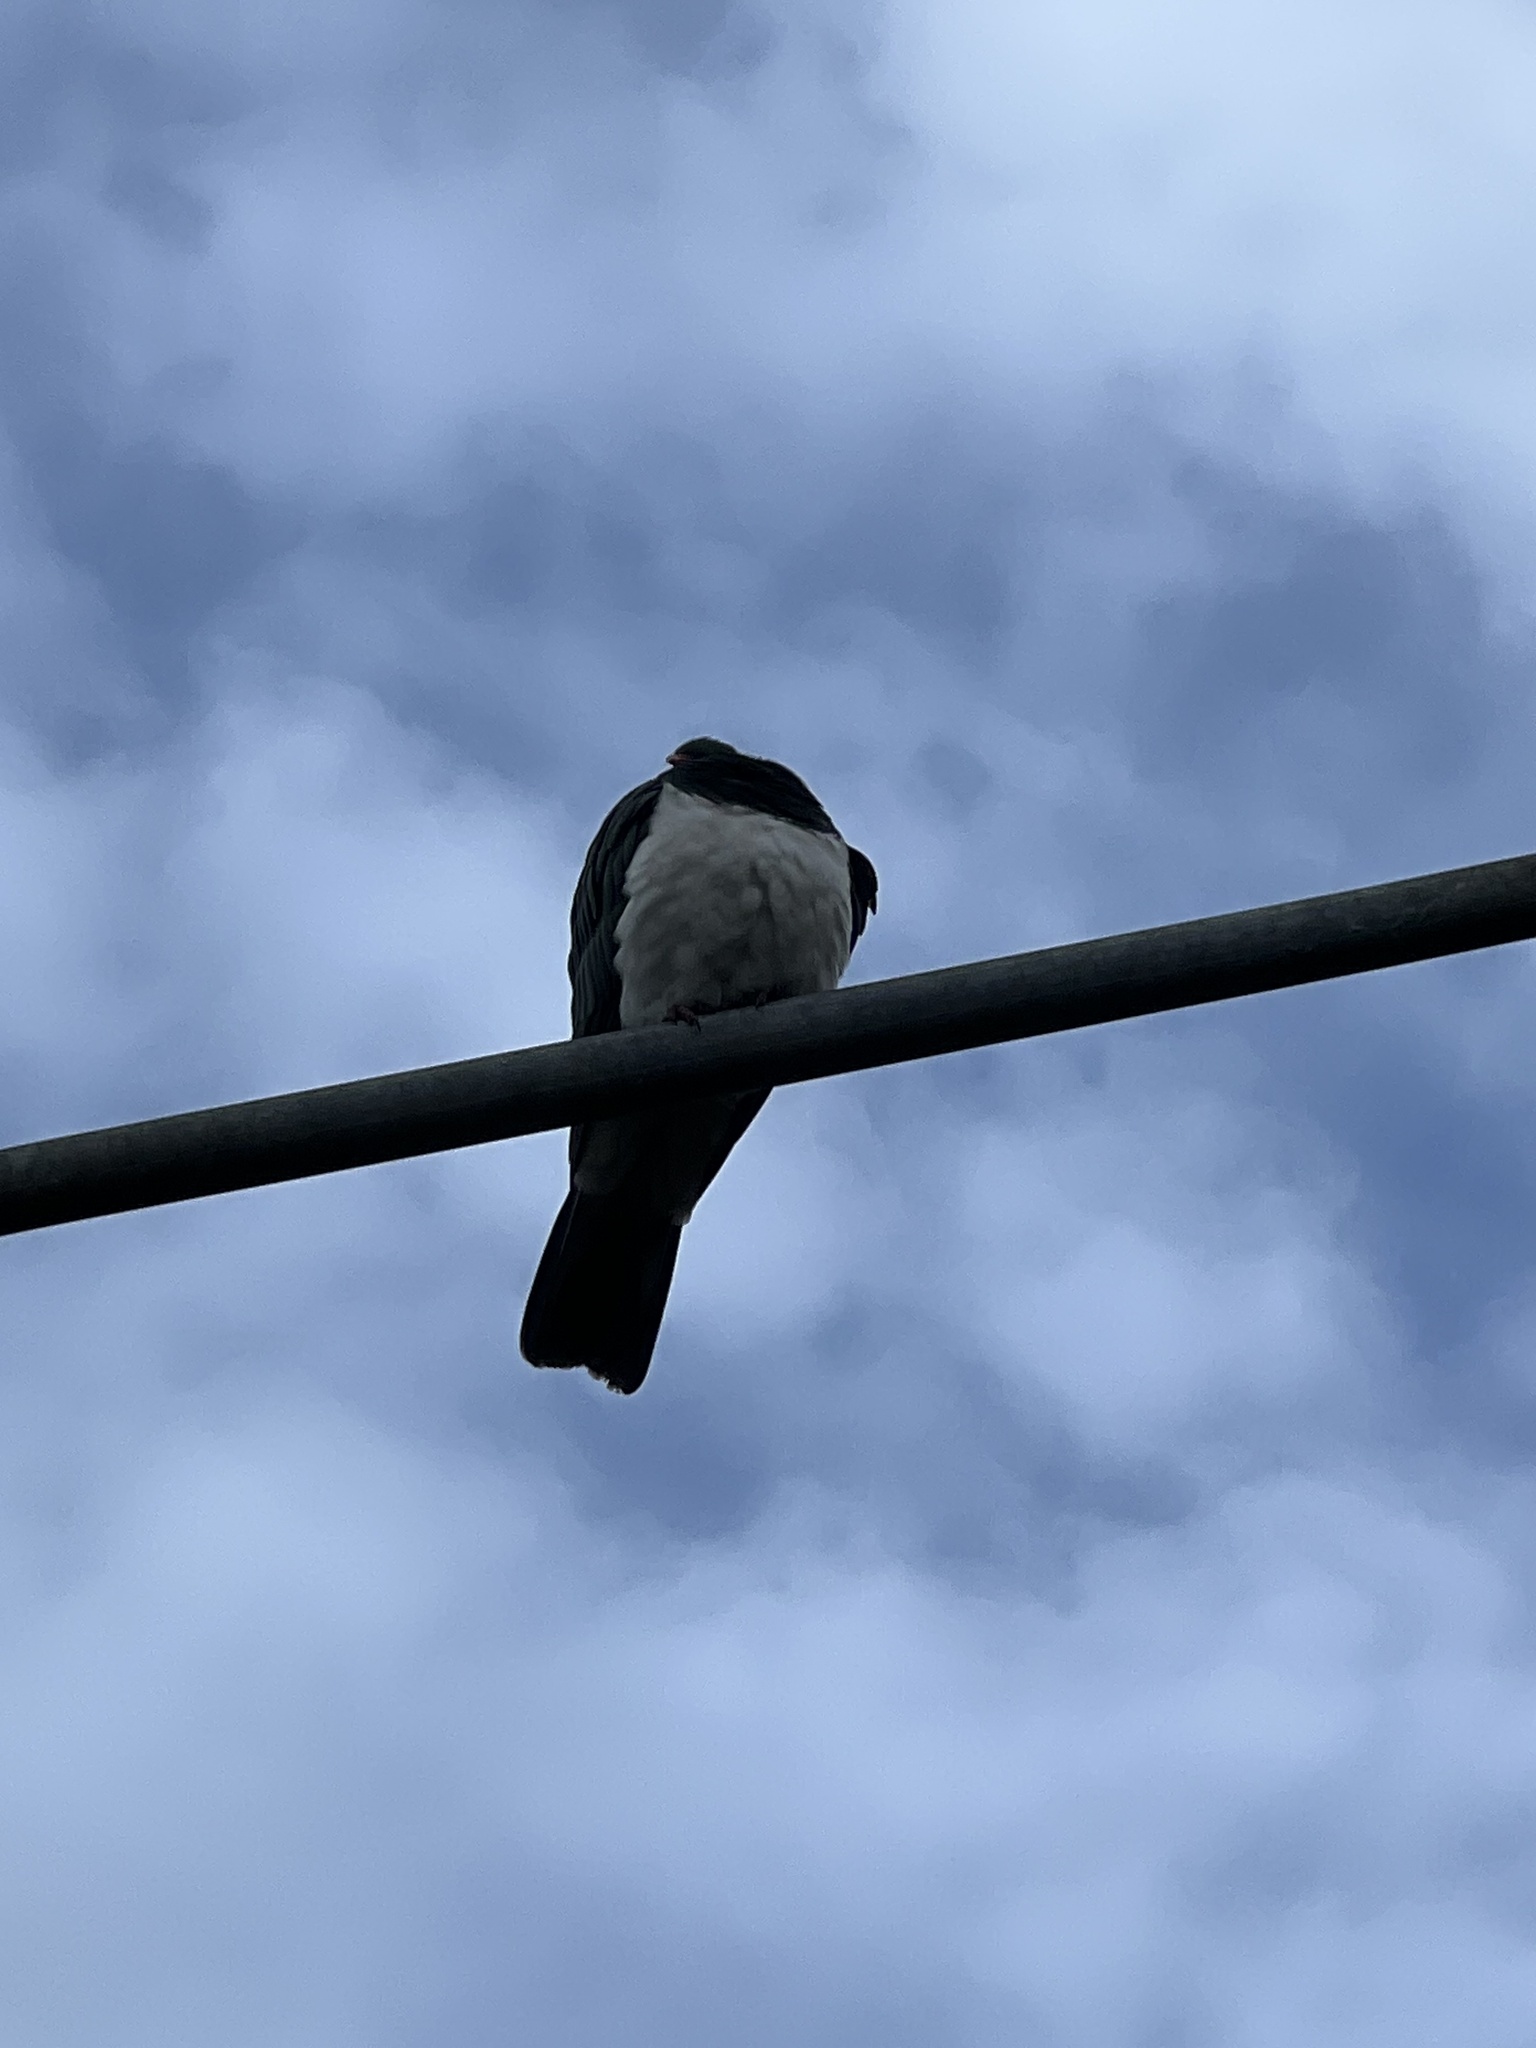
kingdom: Animalia
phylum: Chordata
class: Aves
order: Columbiformes
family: Columbidae
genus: Hemiphaga
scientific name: Hemiphaga novaeseelandiae
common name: New zealand pigeon
